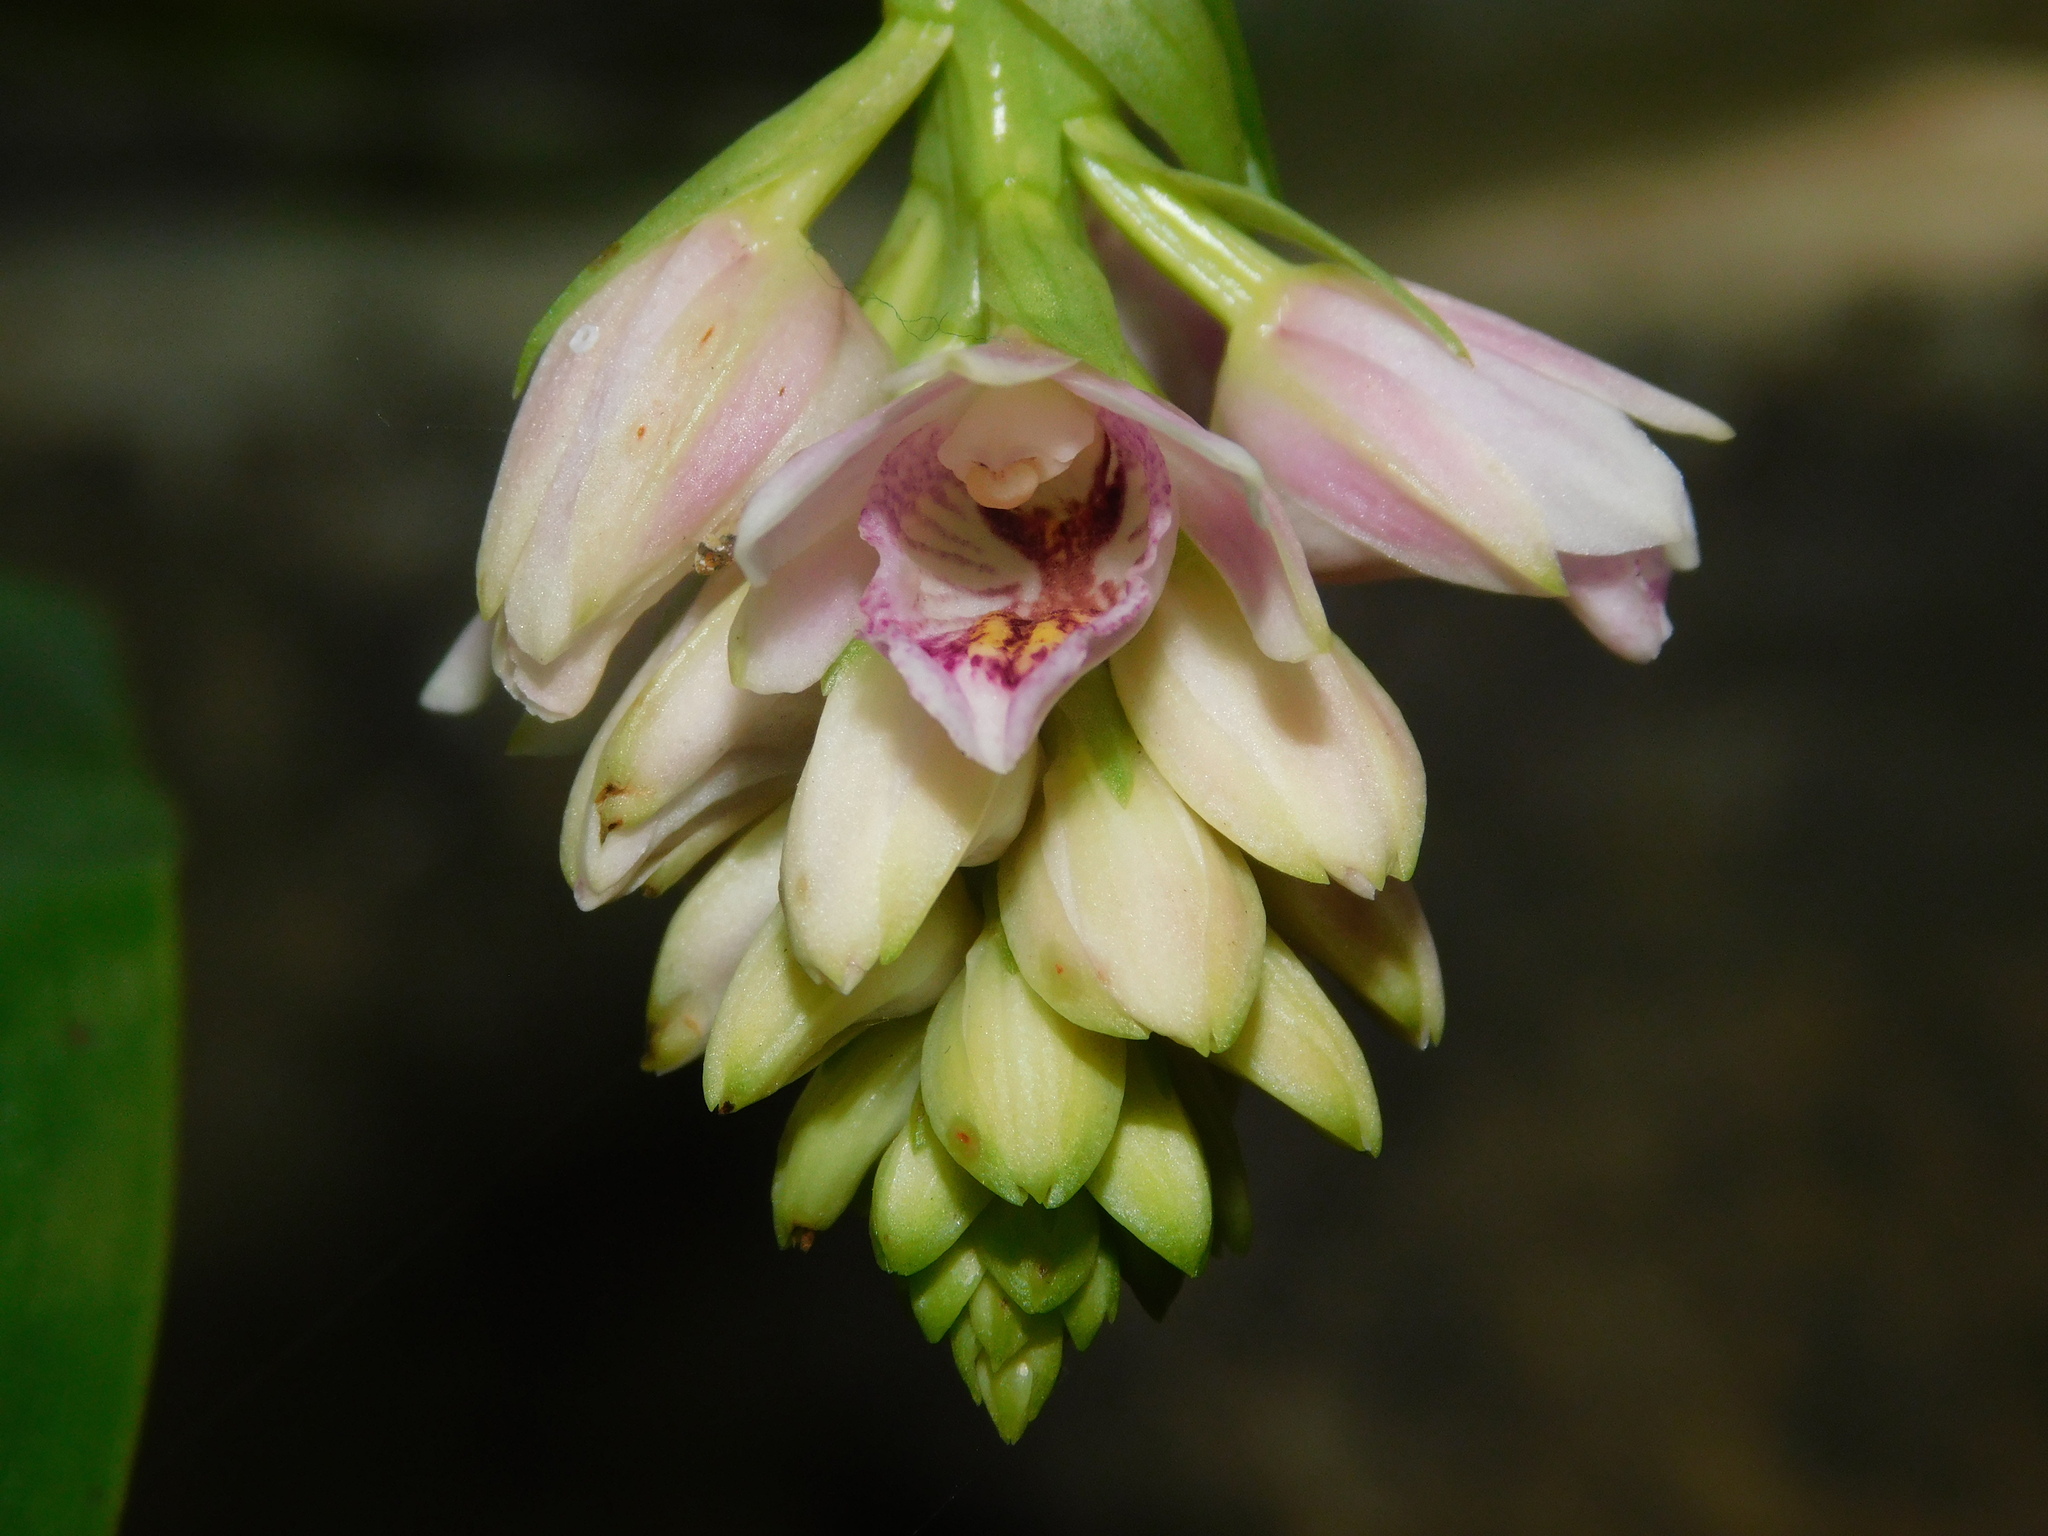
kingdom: Plantae
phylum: Tracheophyta
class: Liliopsida
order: Asparagales
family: Orchidaceae
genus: Eulophia
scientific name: Eulophia cernua
